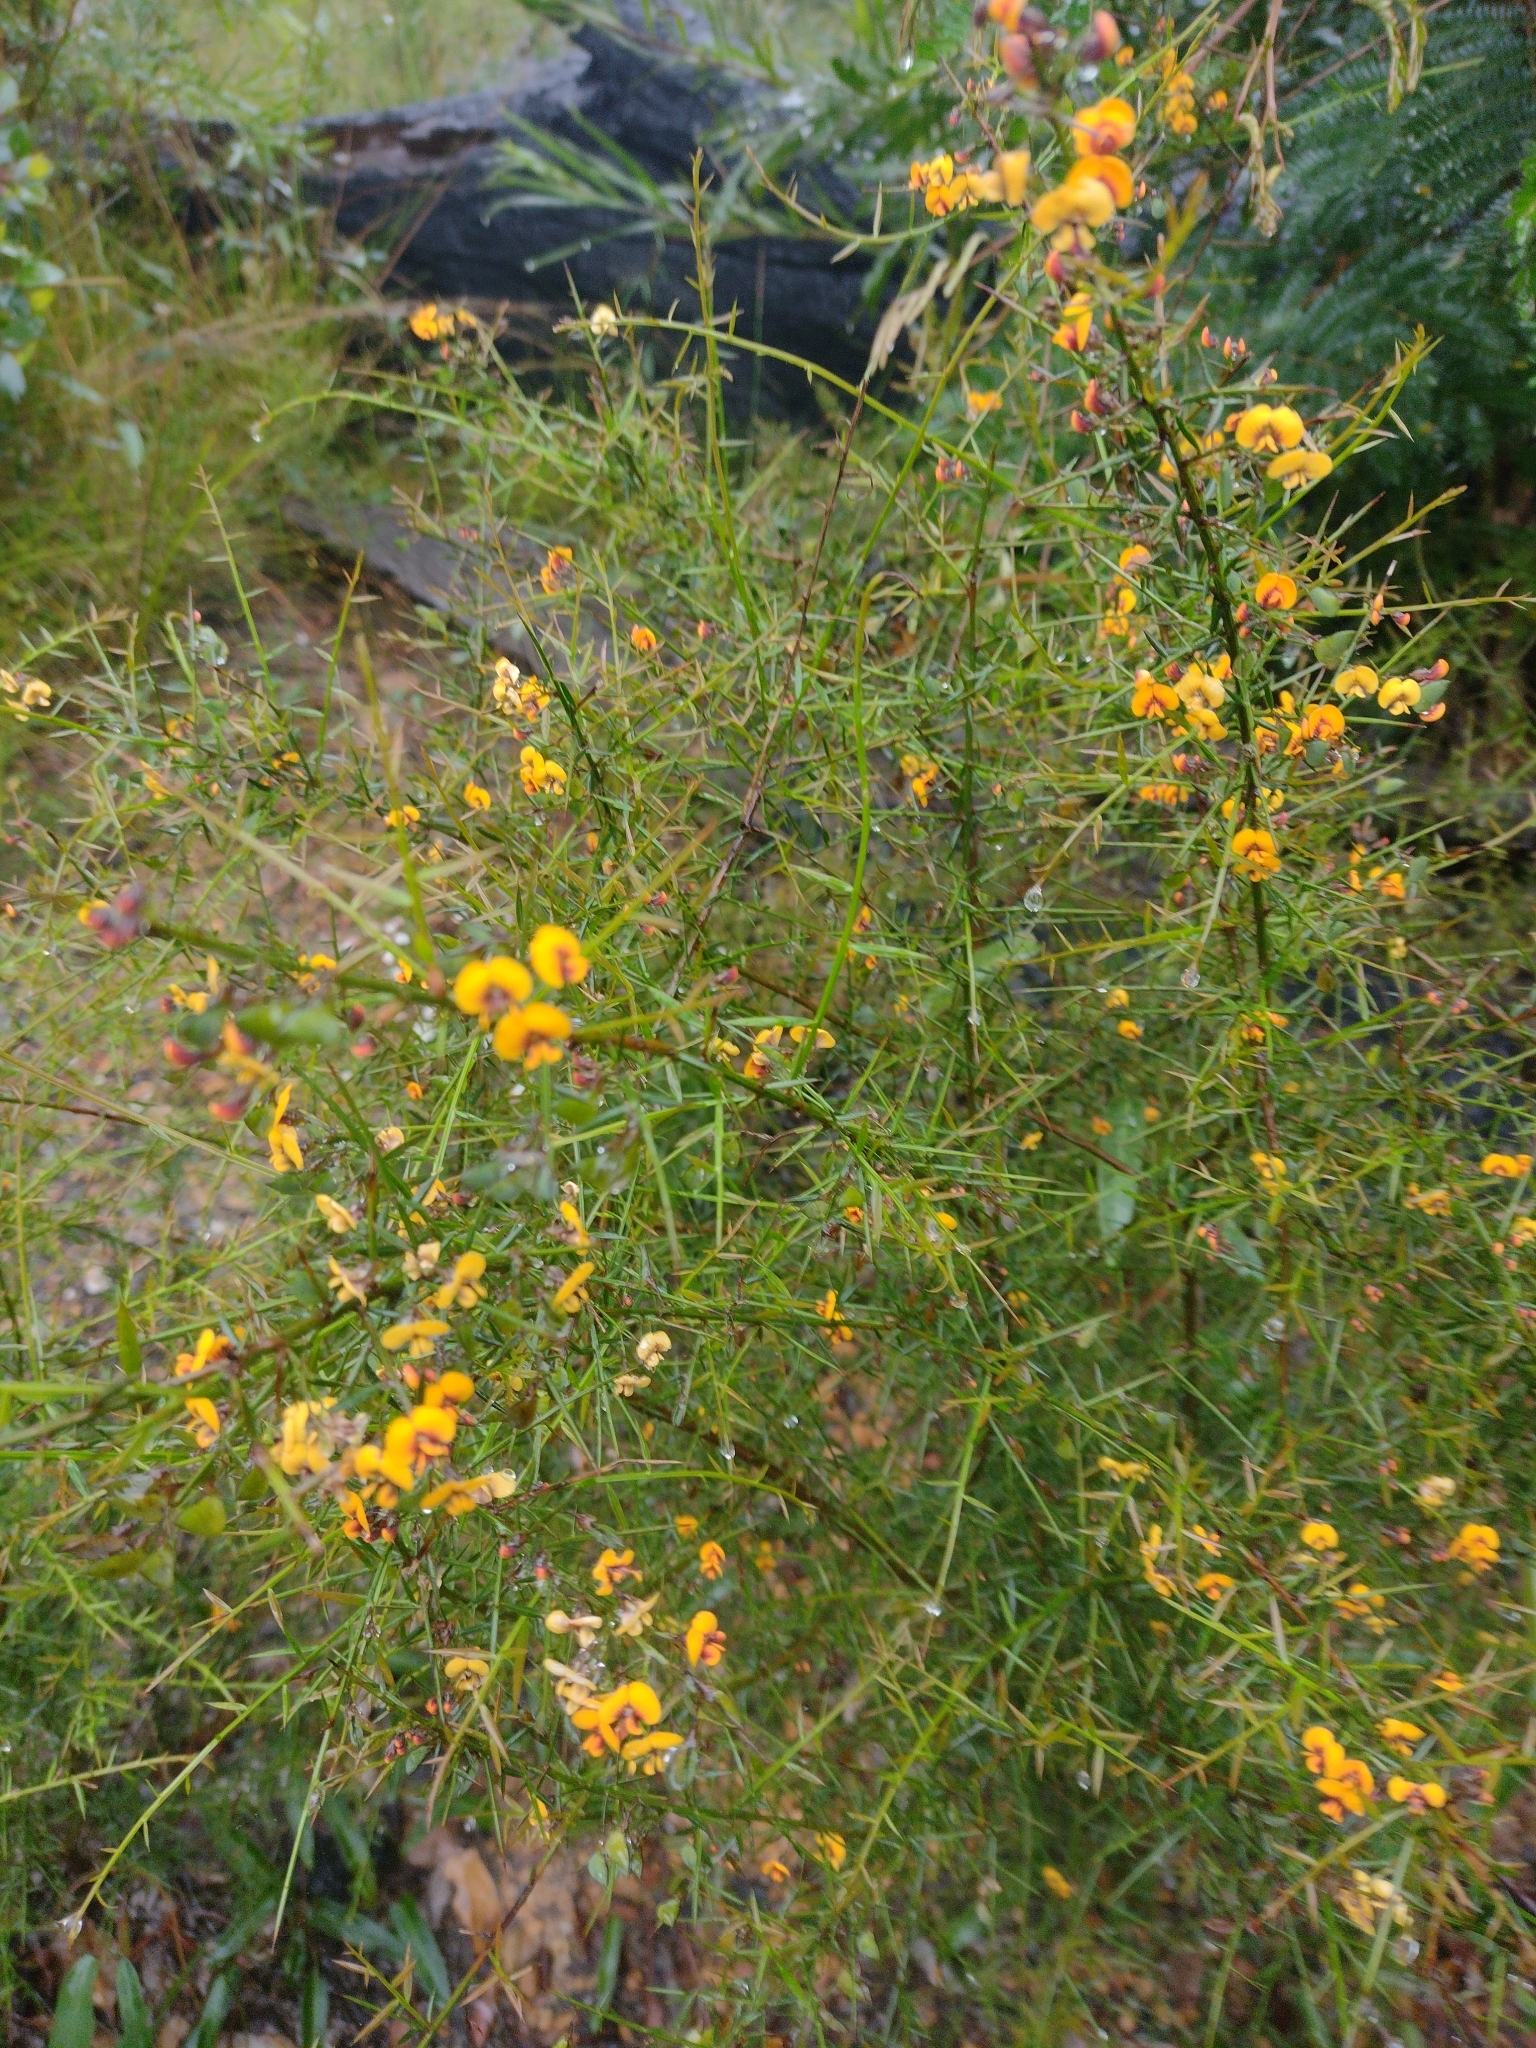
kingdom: Plantae
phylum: Tracheophyta
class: Magnoliopsida
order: Fabales
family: Fabaceae
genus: Daviesia
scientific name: Daviesia ulicifolia
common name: Gorse bitter-pea
